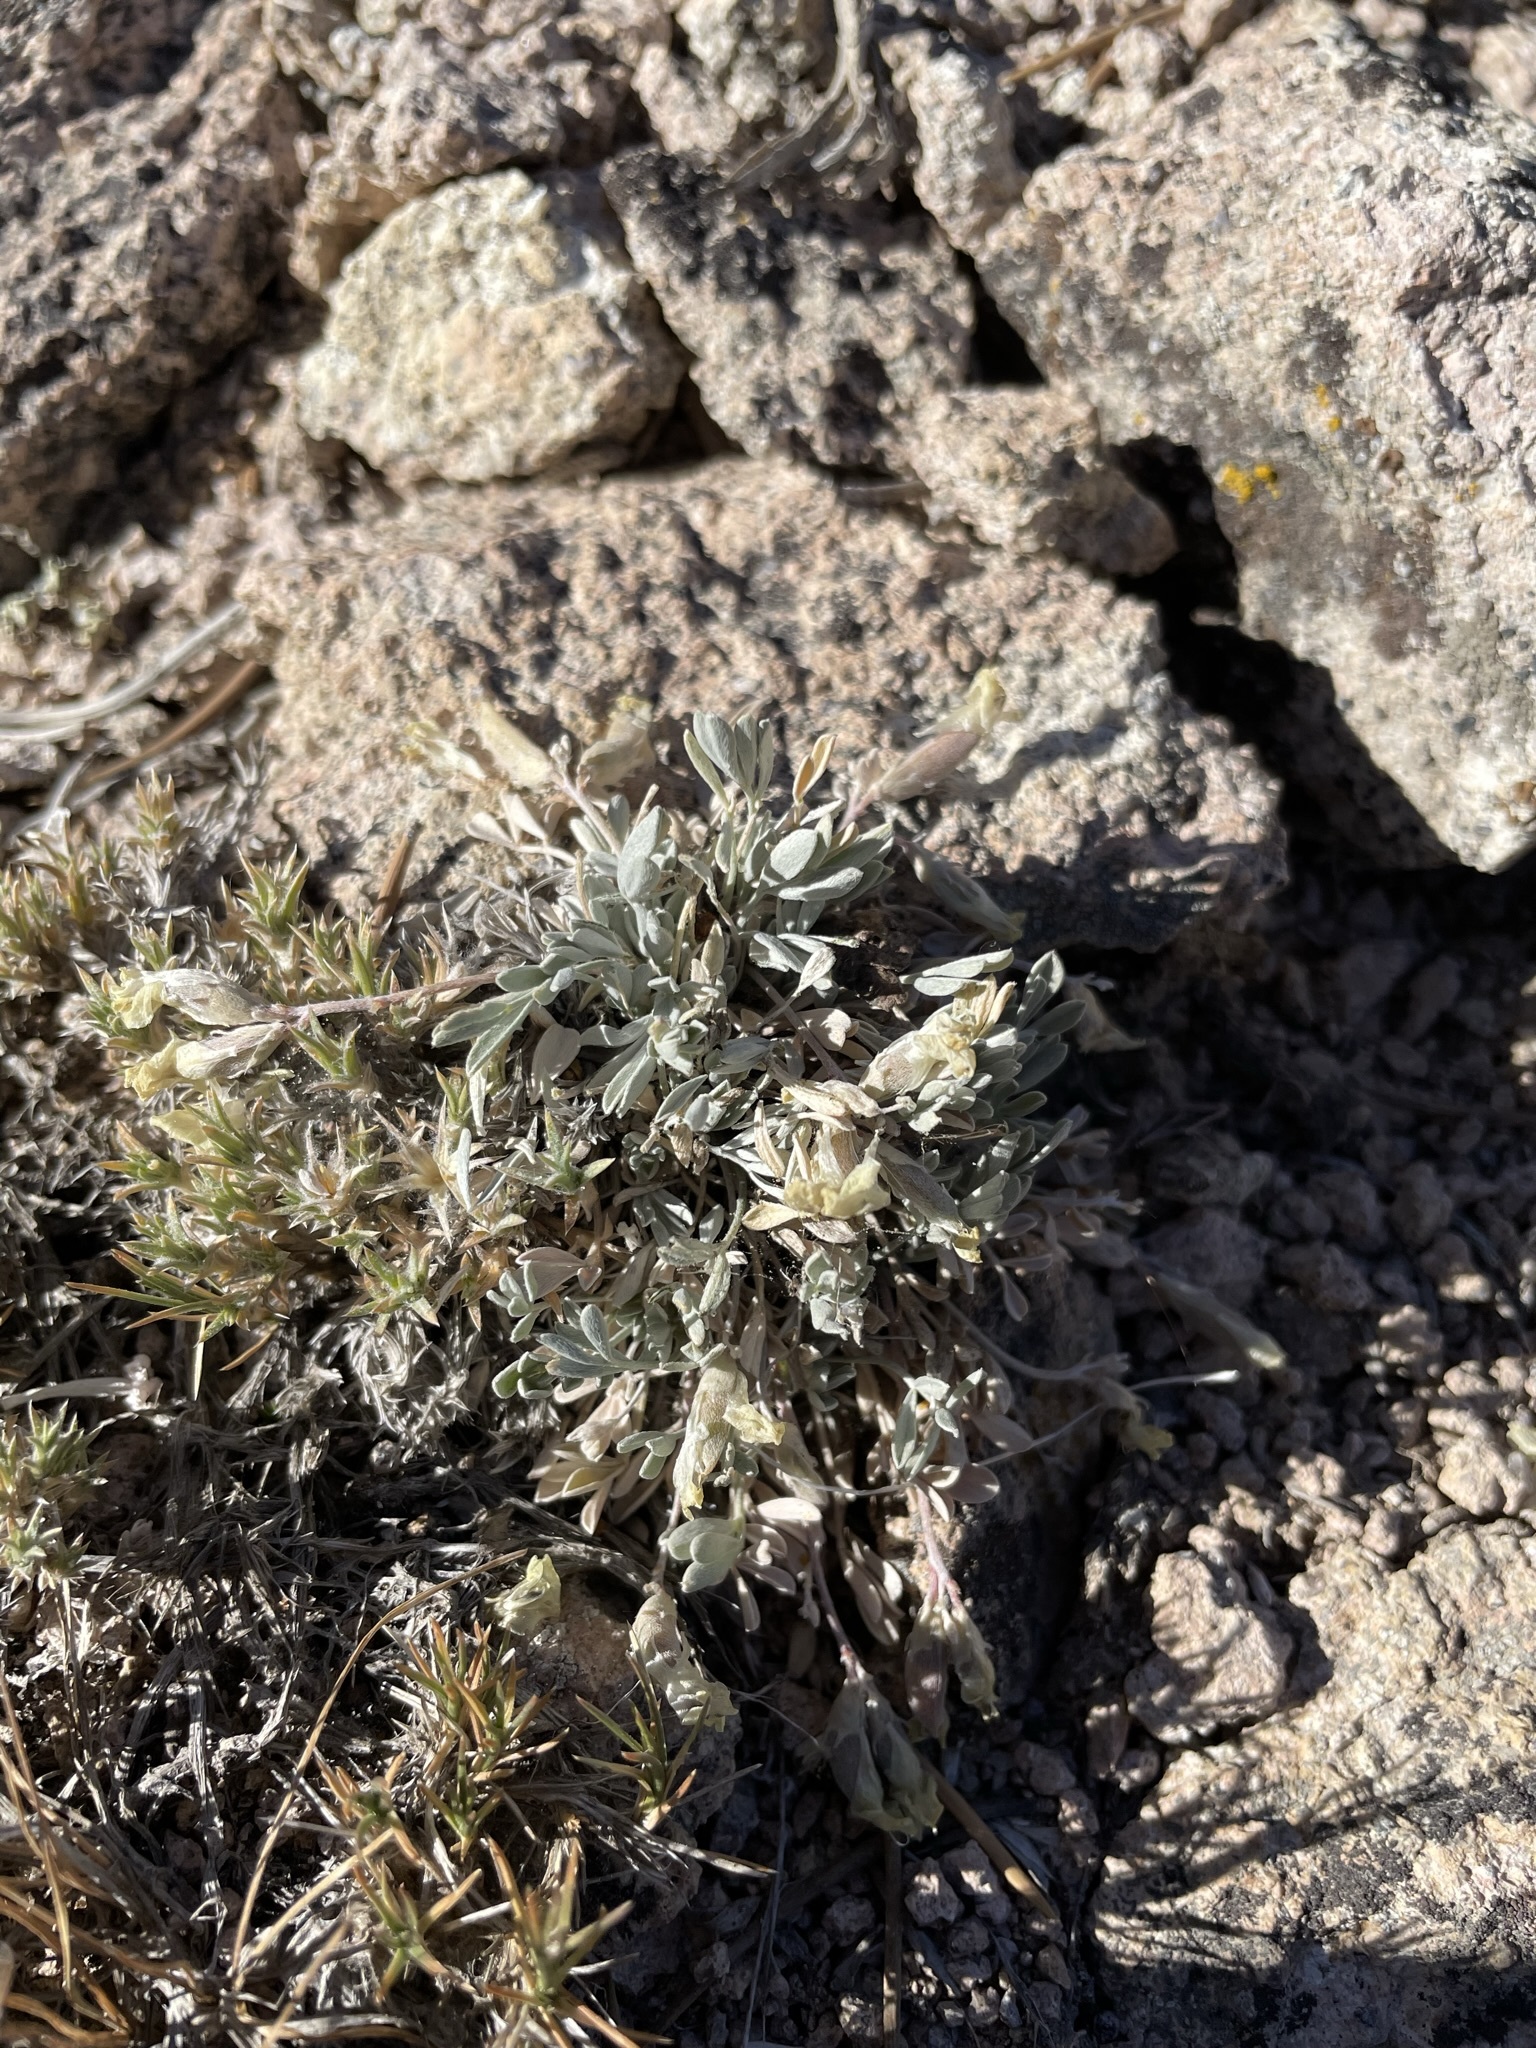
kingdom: Plantae
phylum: Tracheophyta
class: Magnoliopsida
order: Fabales
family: Fabaceae
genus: Astragalus
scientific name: Astragalus calycosus
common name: King's milkvetch
